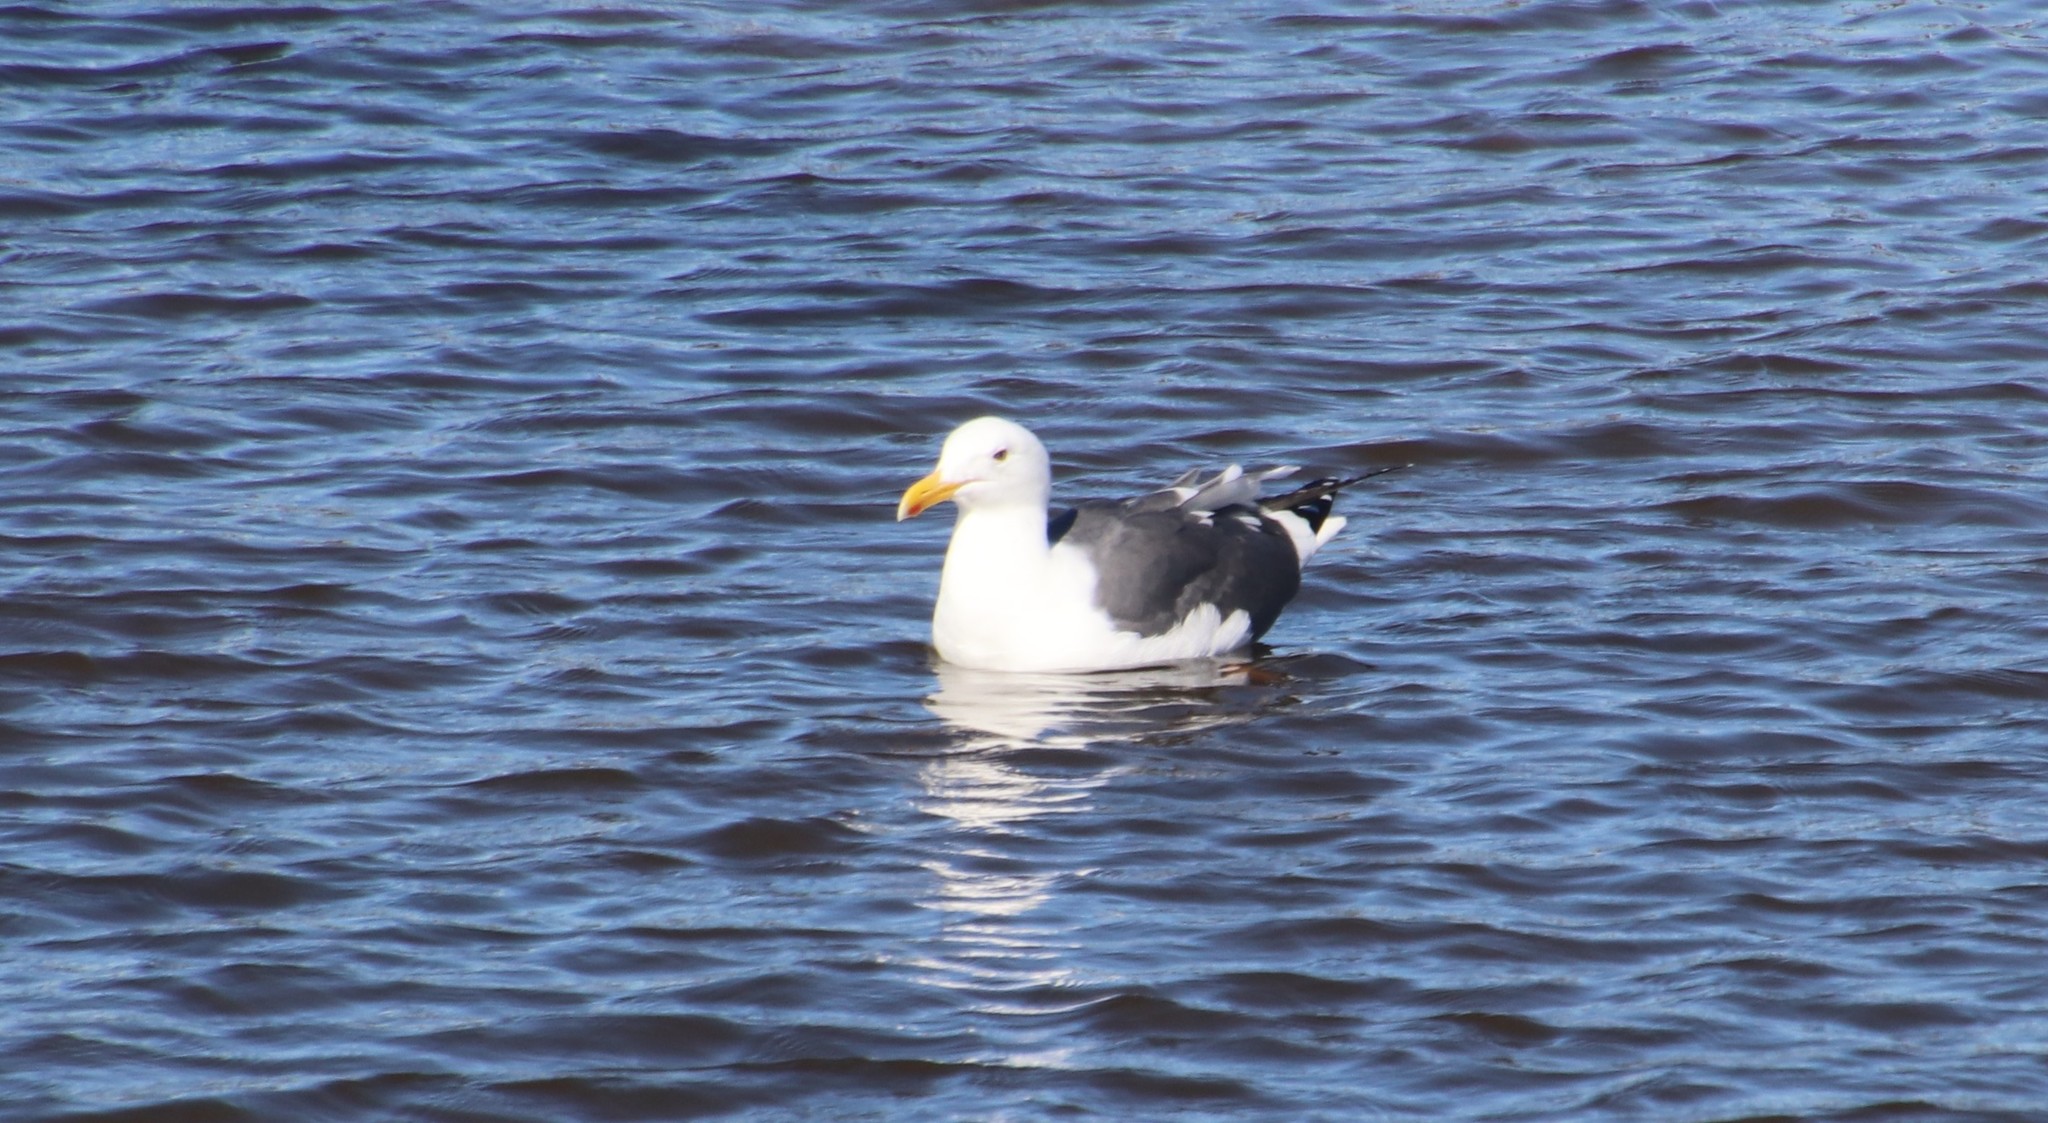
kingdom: Animalia
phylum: Chordata
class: Aves
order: Charadriiformes
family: Laridae
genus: Larus
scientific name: Larus occidentalis
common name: Western gull
